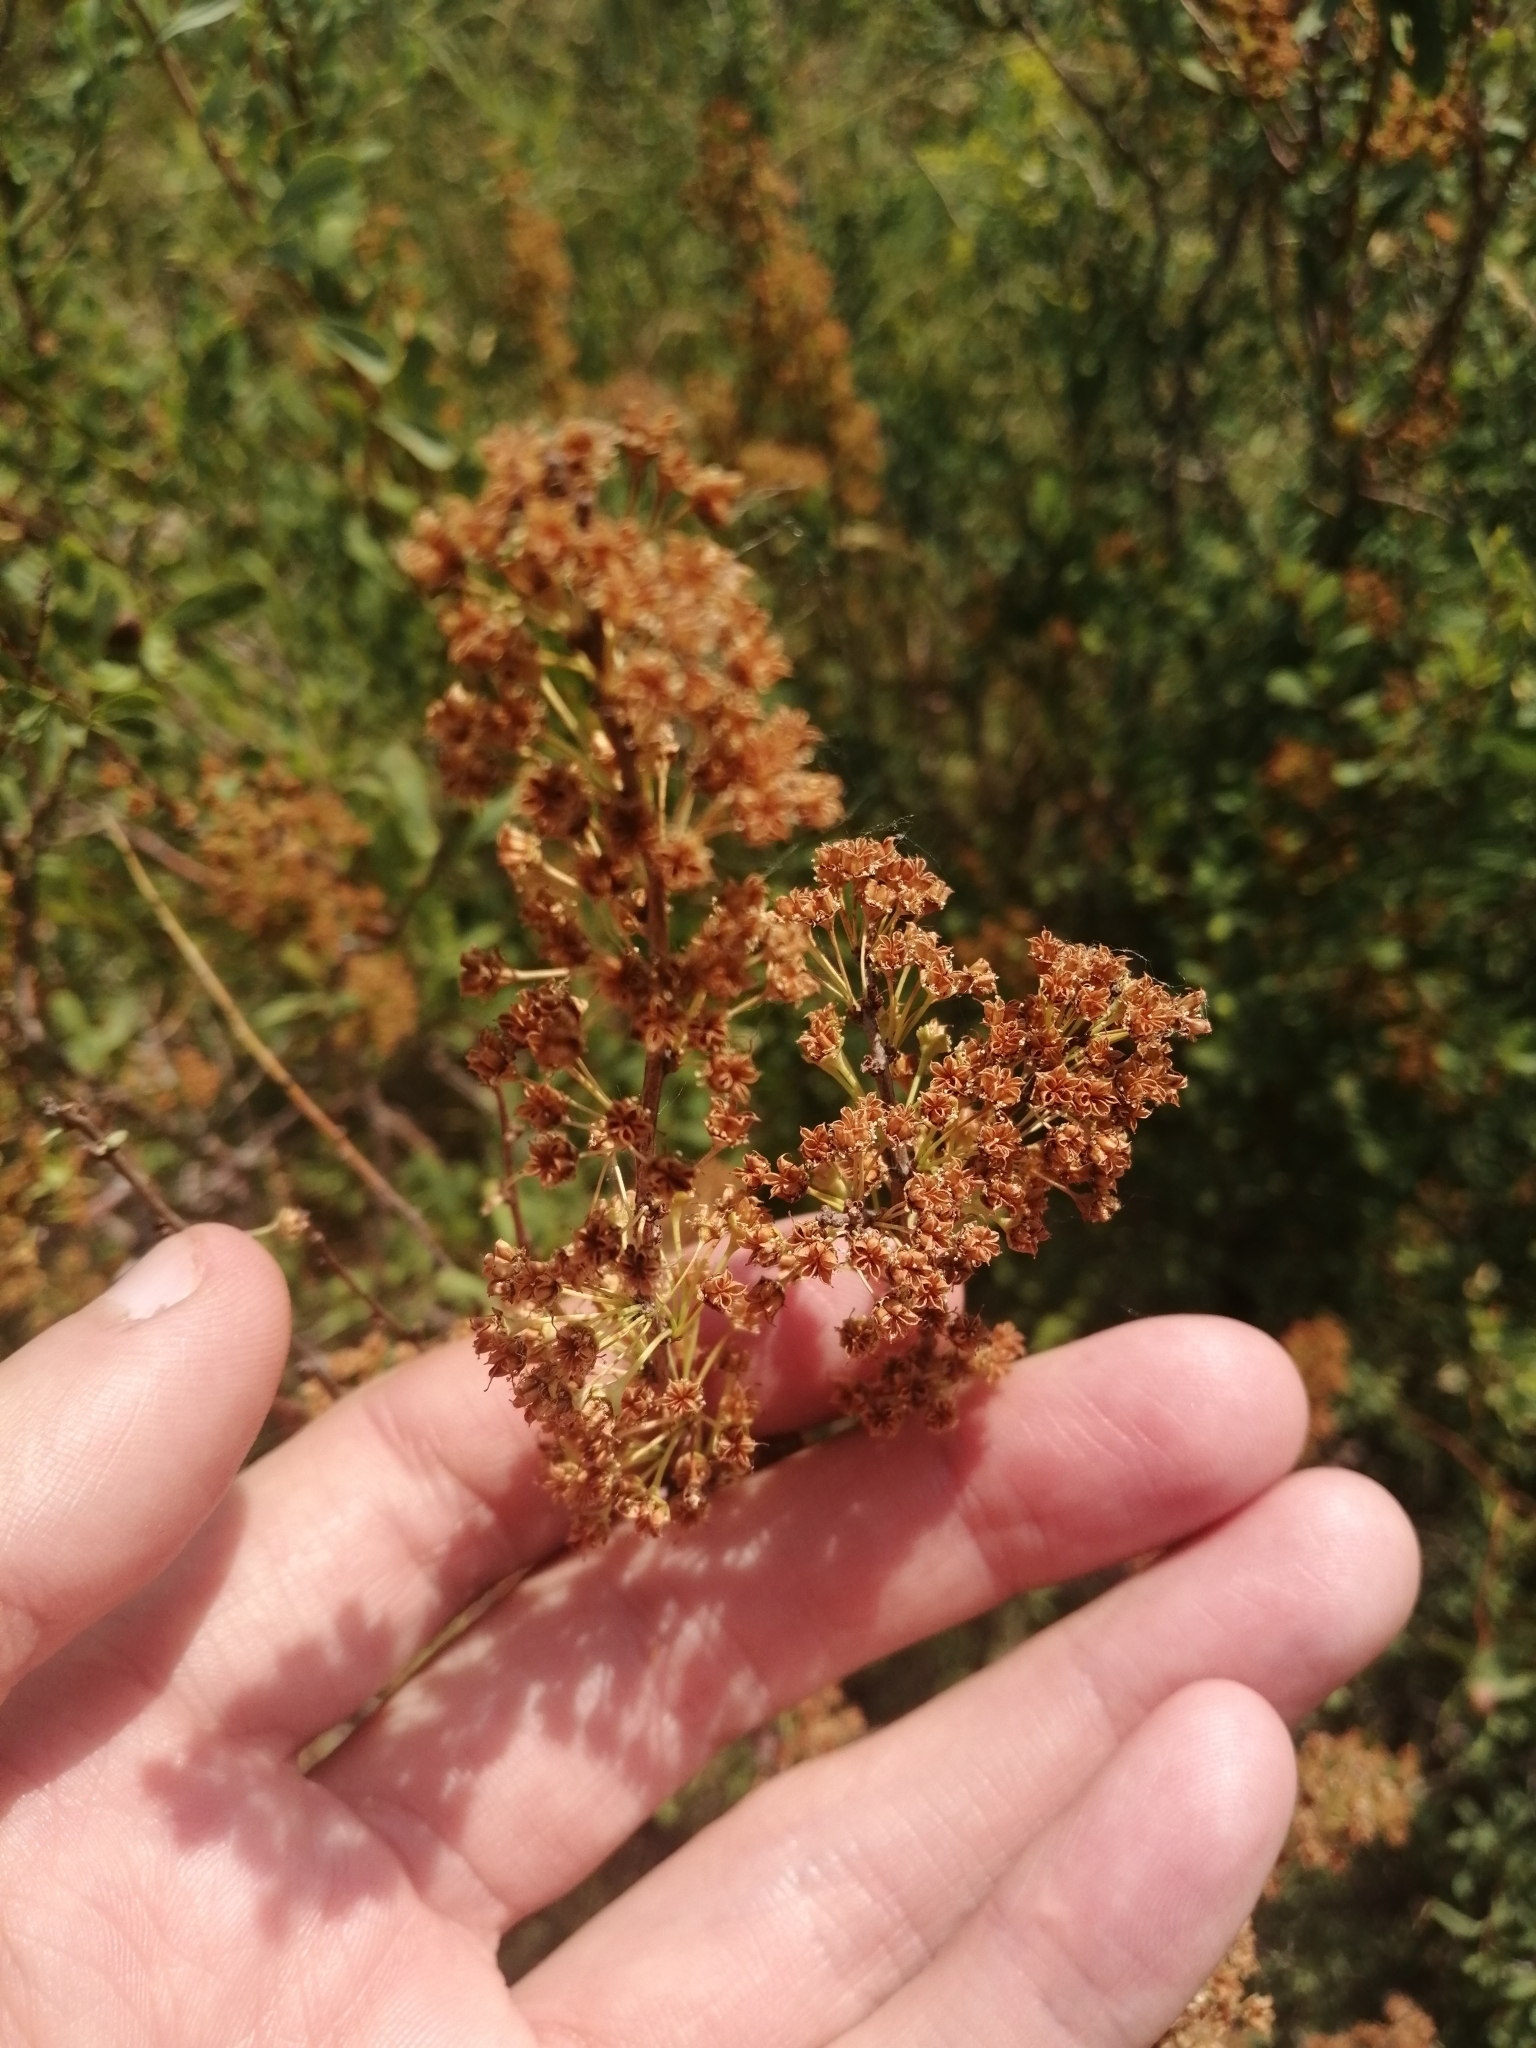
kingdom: Plantae
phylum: Tracheophyta
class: Magnoliopsida
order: Rosales
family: Rosaceae
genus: Spiraea
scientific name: Spiraea hypericifolia
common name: Iberian spirea
